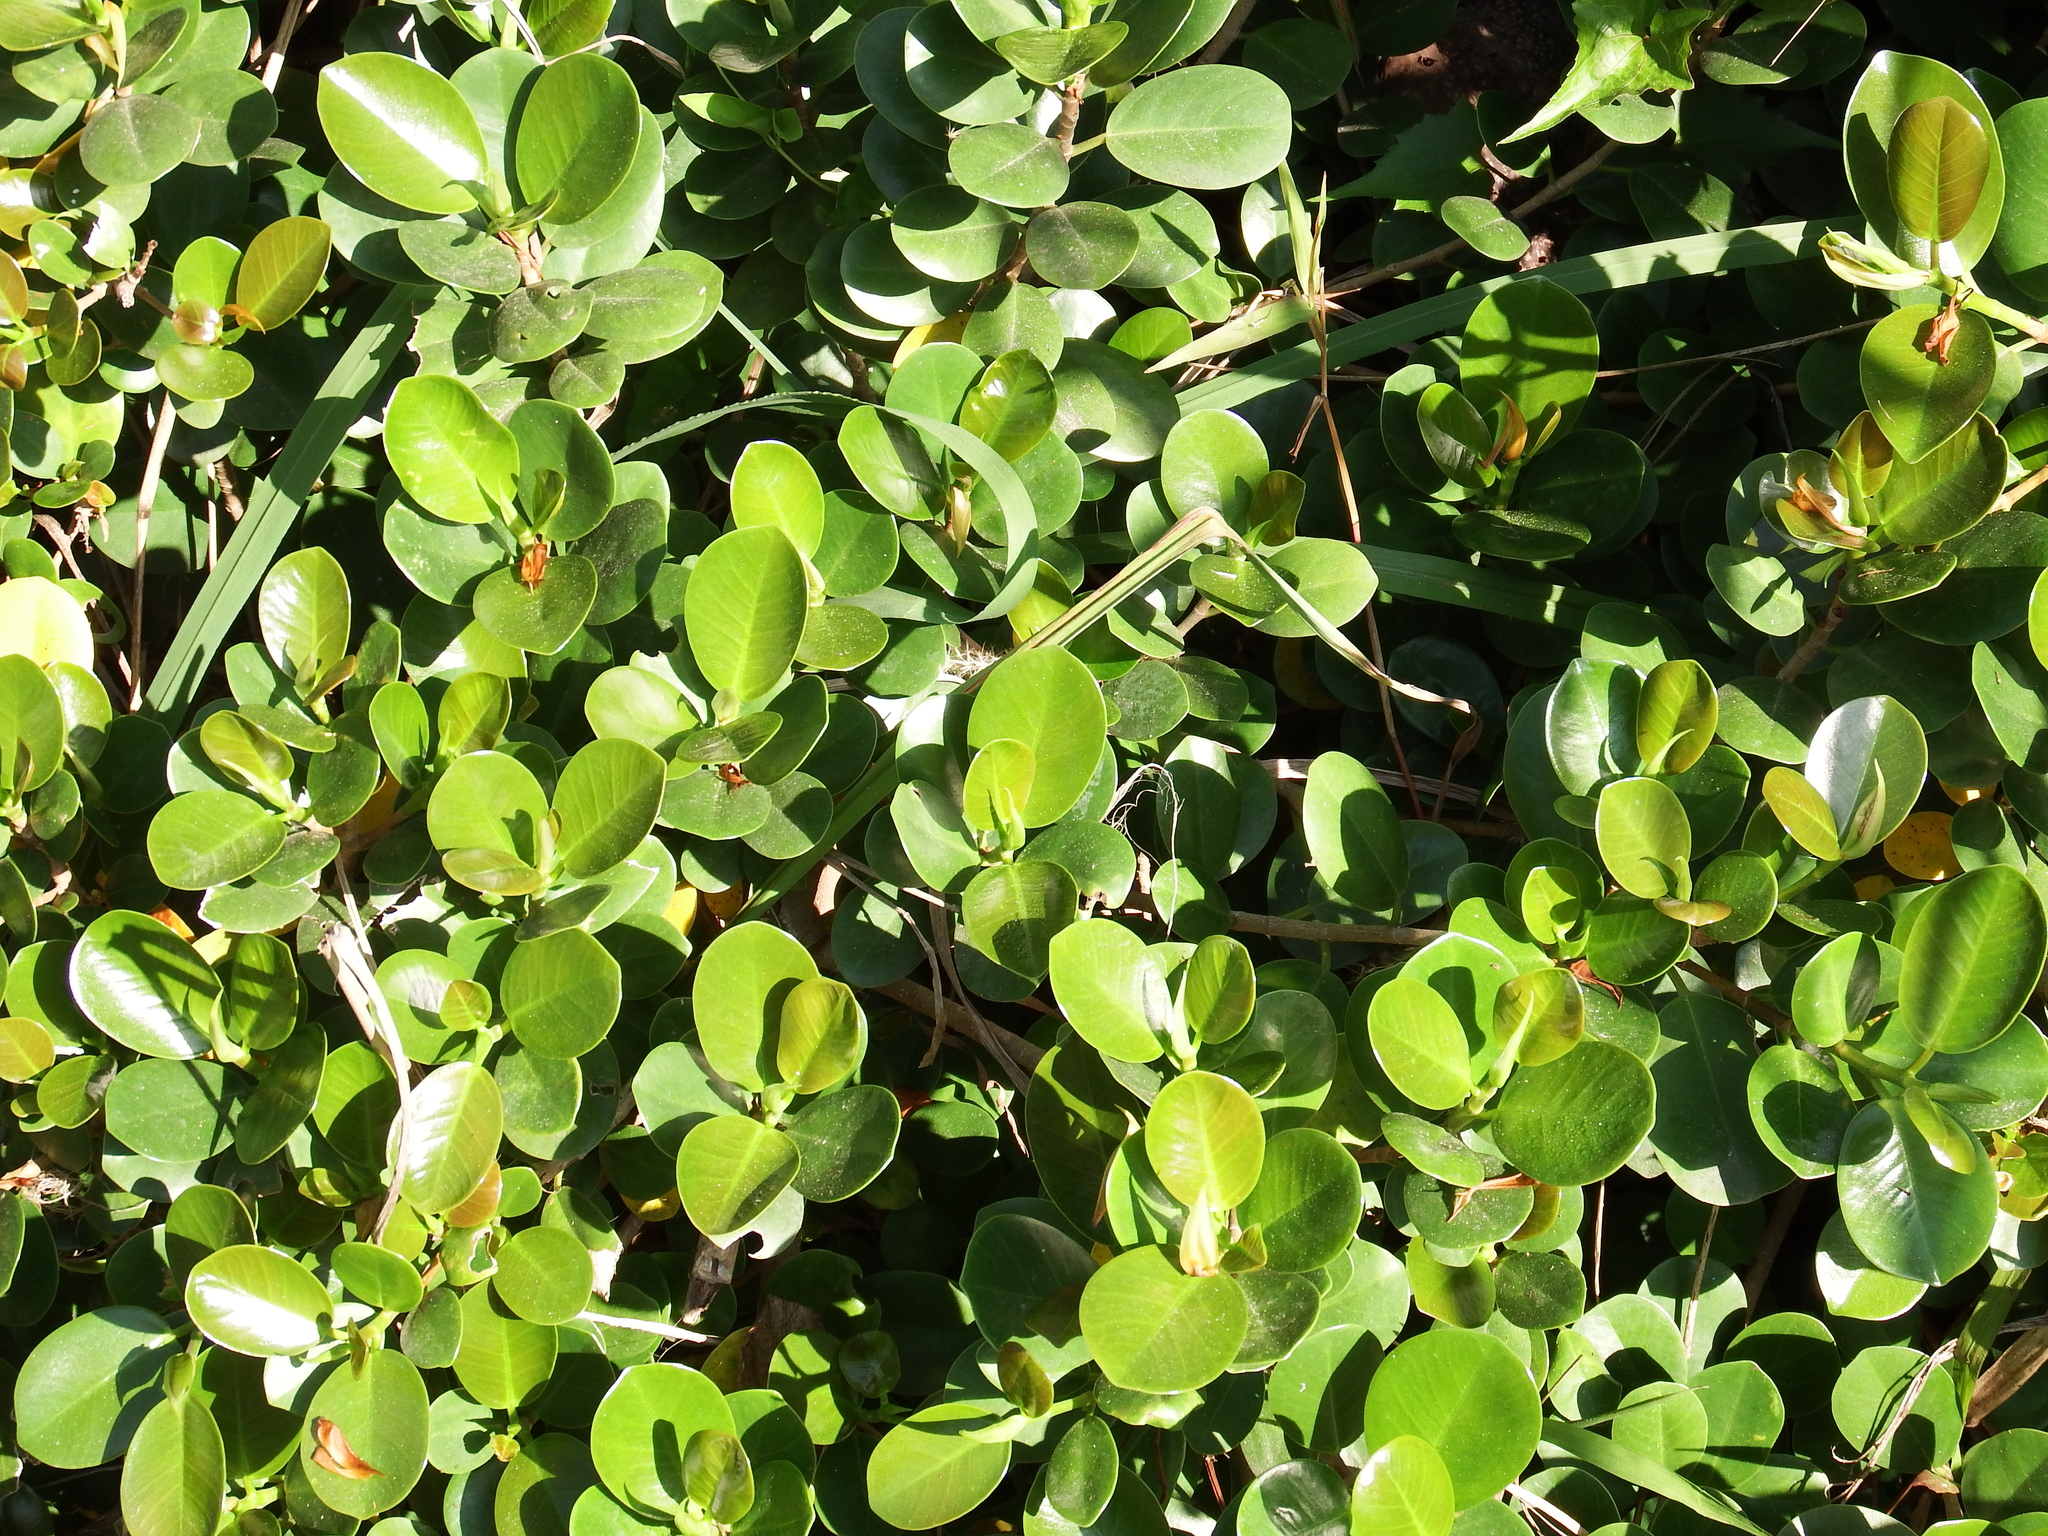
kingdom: Plantae
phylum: Tracheophyta
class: Magnoliopsida
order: Rosales
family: Moraceae
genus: Ficus
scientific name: Ficus microcarpa
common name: Chinese banyan
